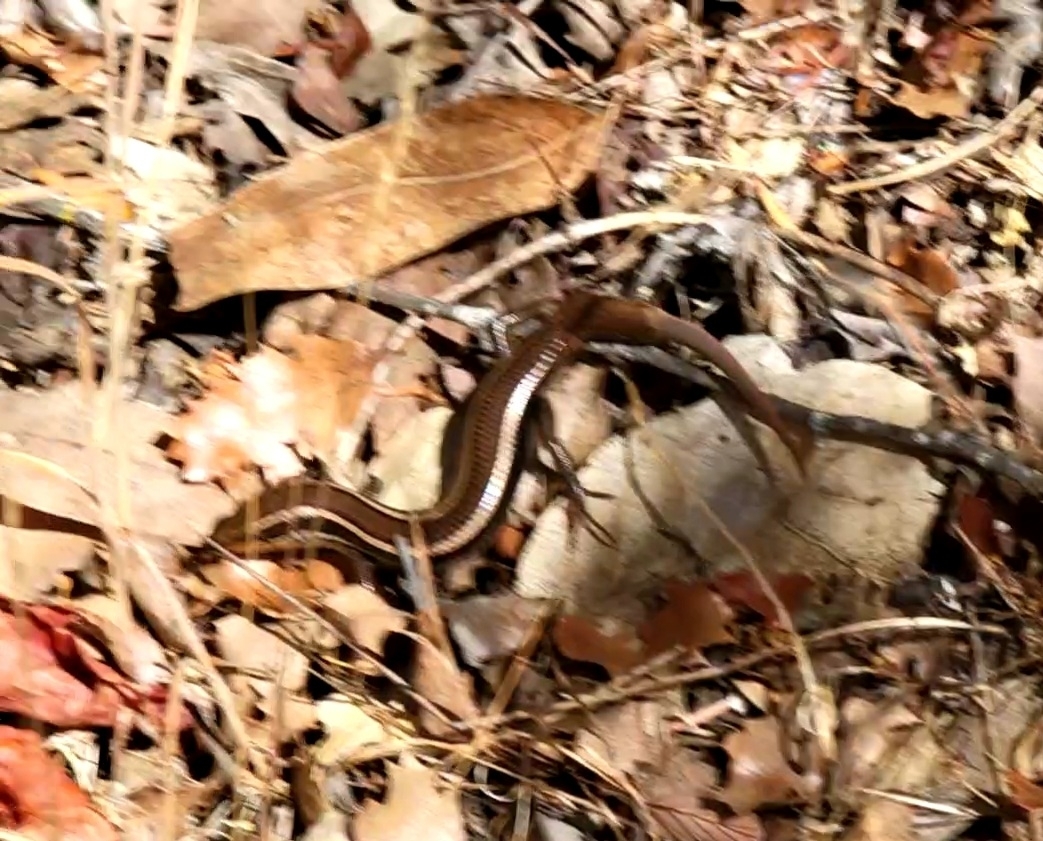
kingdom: Animalia
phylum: Chordata
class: Squamata
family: Scincidae
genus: Plestiodon
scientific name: Plestiodon skiltonianus
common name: Coronado island skink [interparietalis]
